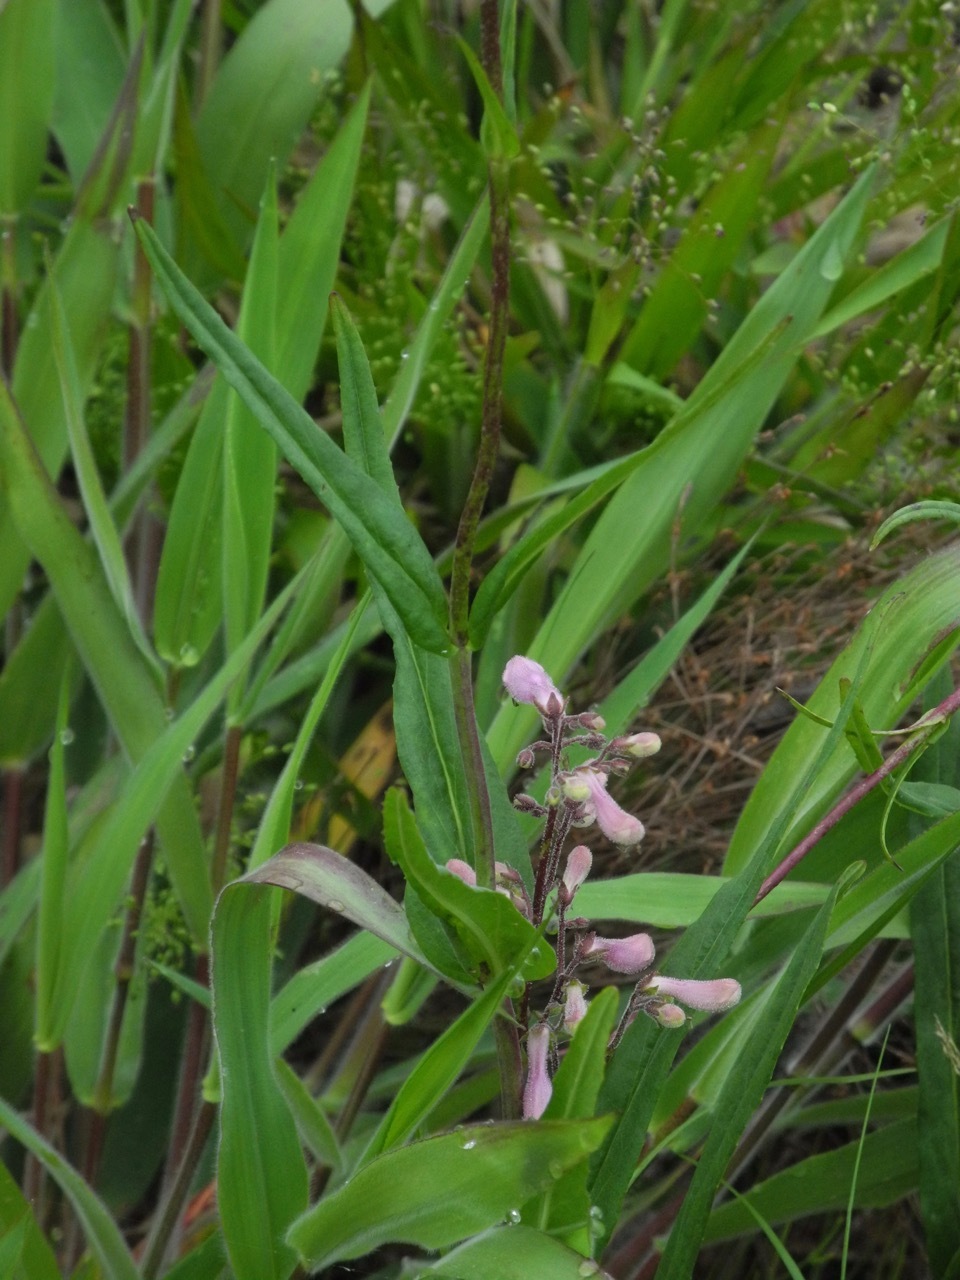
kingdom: Plantae
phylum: Tracheophyta
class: Magnoliopsida
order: Lamiales
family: Plantaginaceae
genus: Penstemon
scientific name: Penstemon laevigatus
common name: Eastern beardtongue
